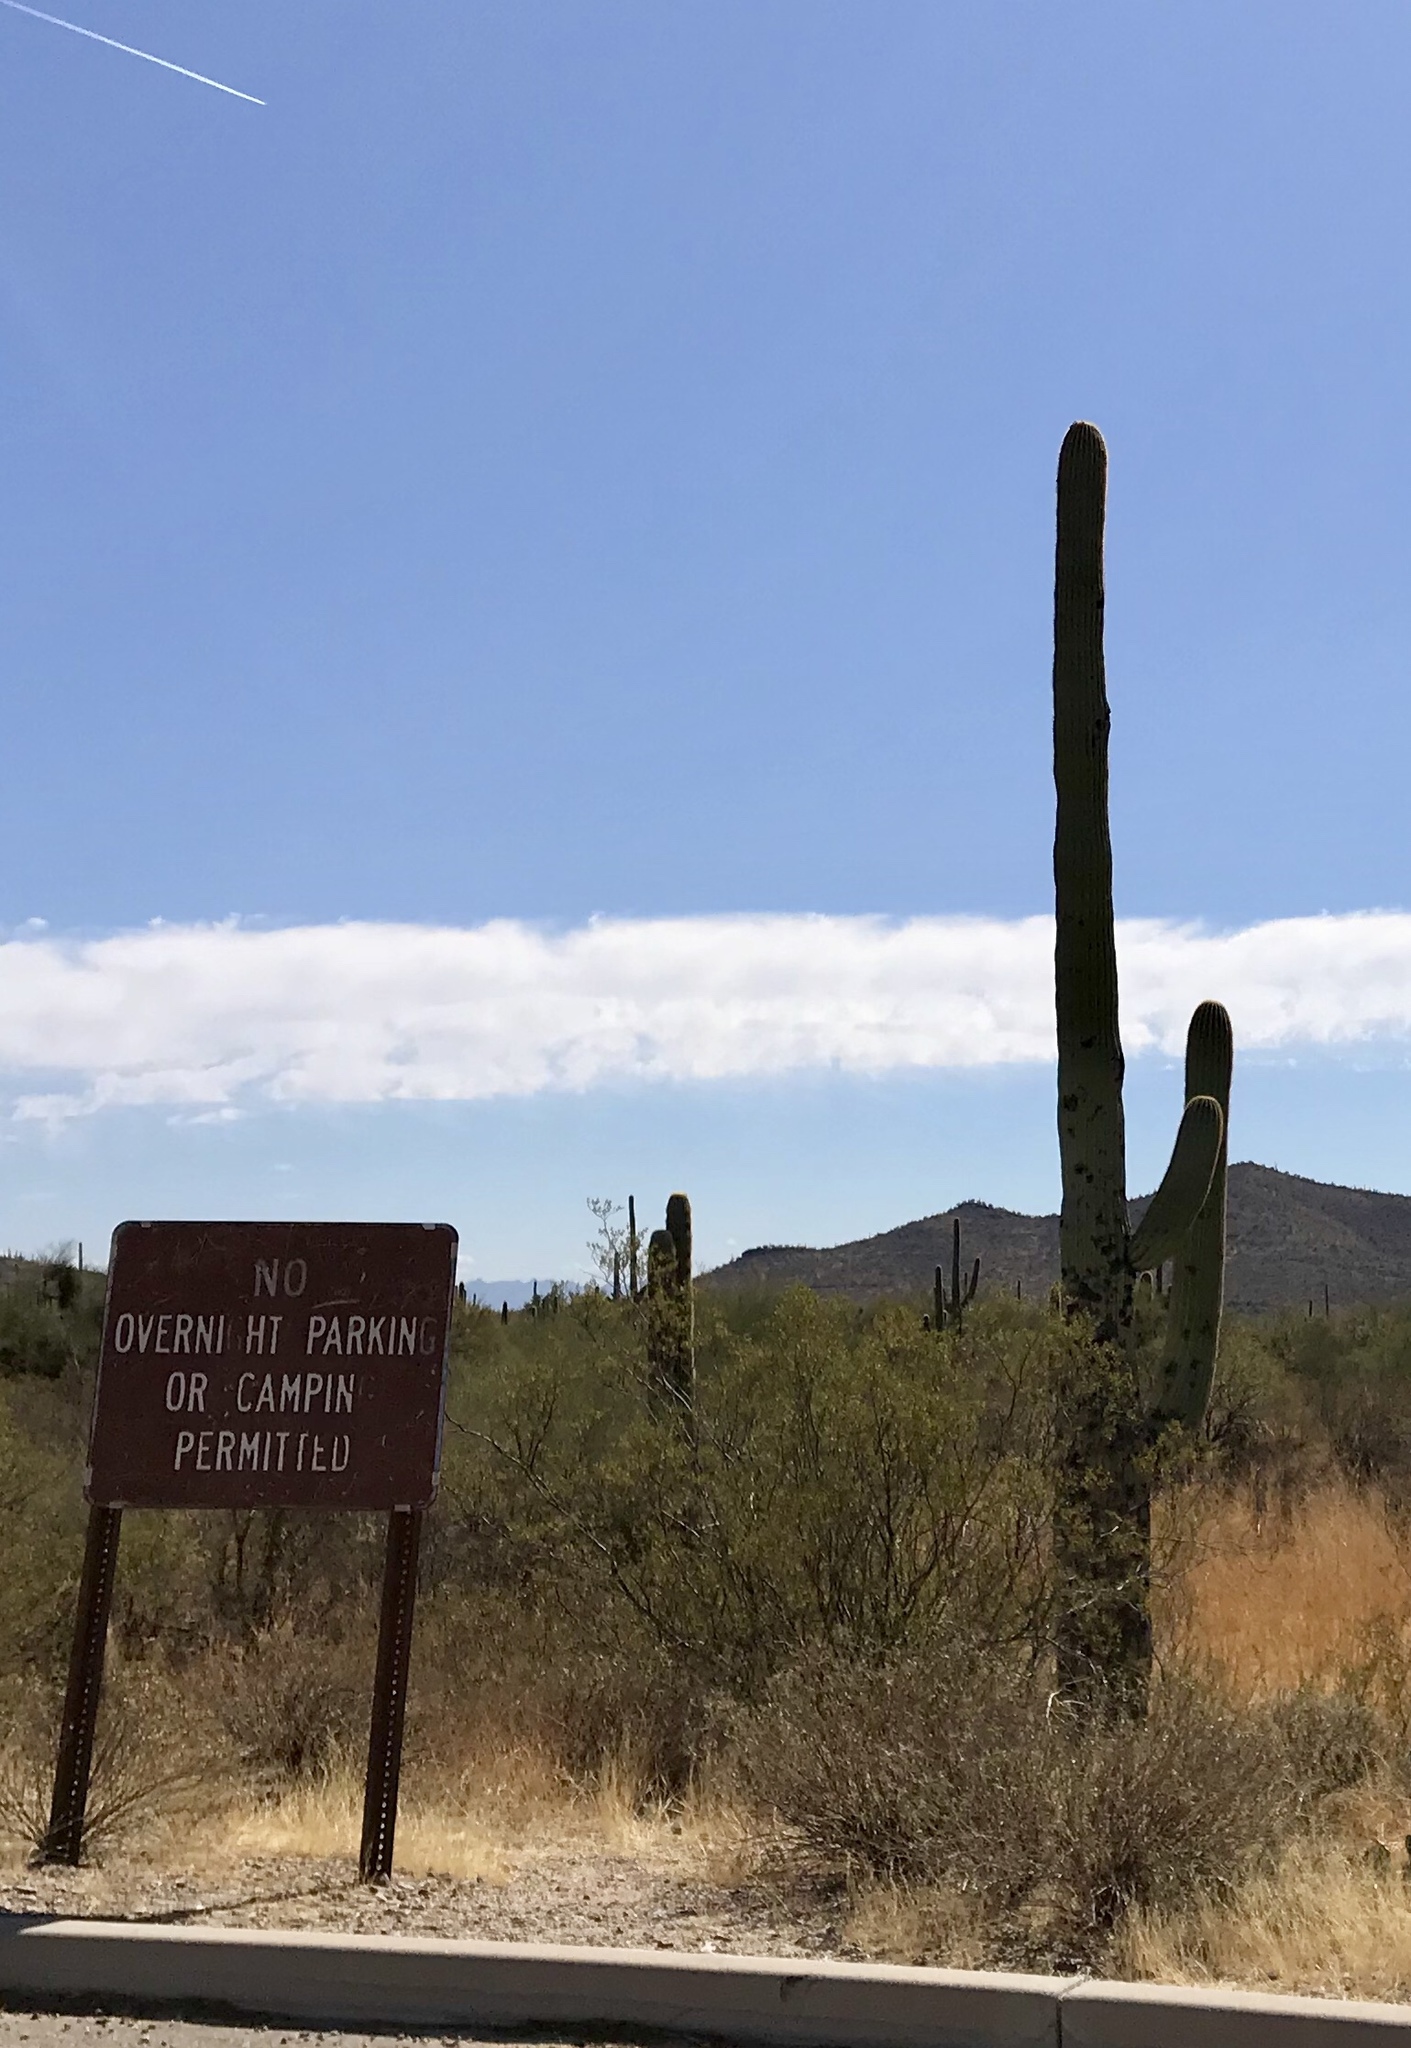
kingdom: Plantae
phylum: Tracheophyta
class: Magnoliopsida
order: Caryophyllales
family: Cactaceae
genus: Carnegiea
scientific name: Carnegiea gigantea
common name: Saguaro
